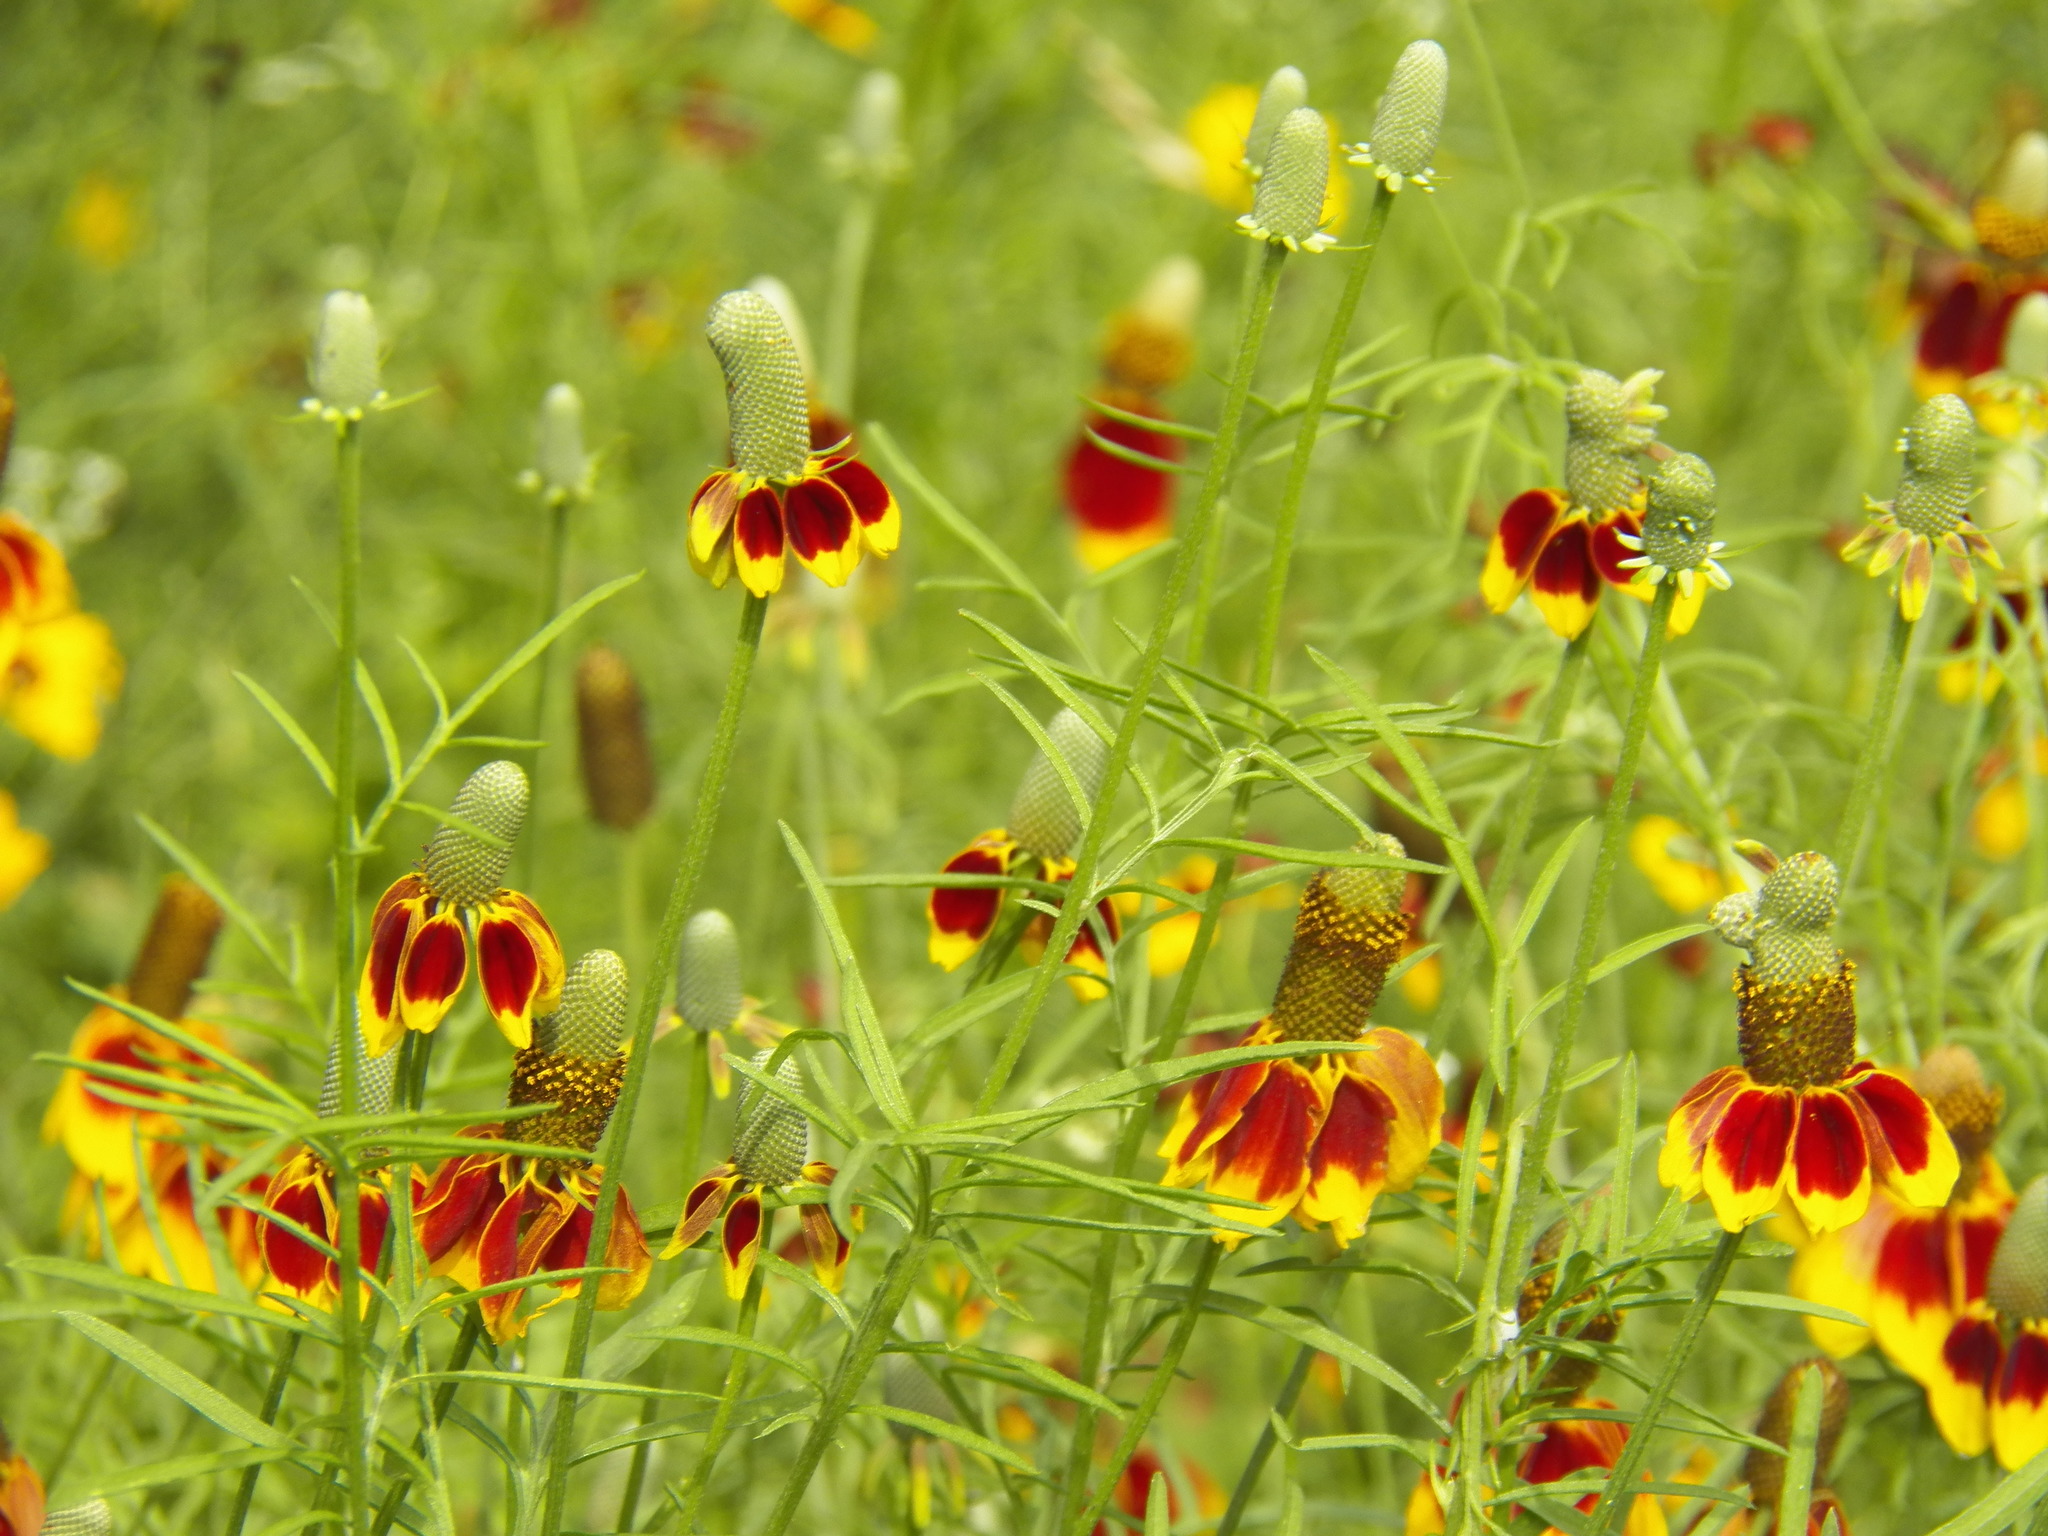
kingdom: Plantae
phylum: Tracheophyta
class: Magnoliopsida
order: Asterales
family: Asteraceae
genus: Ratibida
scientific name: Ratibida columnifera
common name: Prairie coneflower
